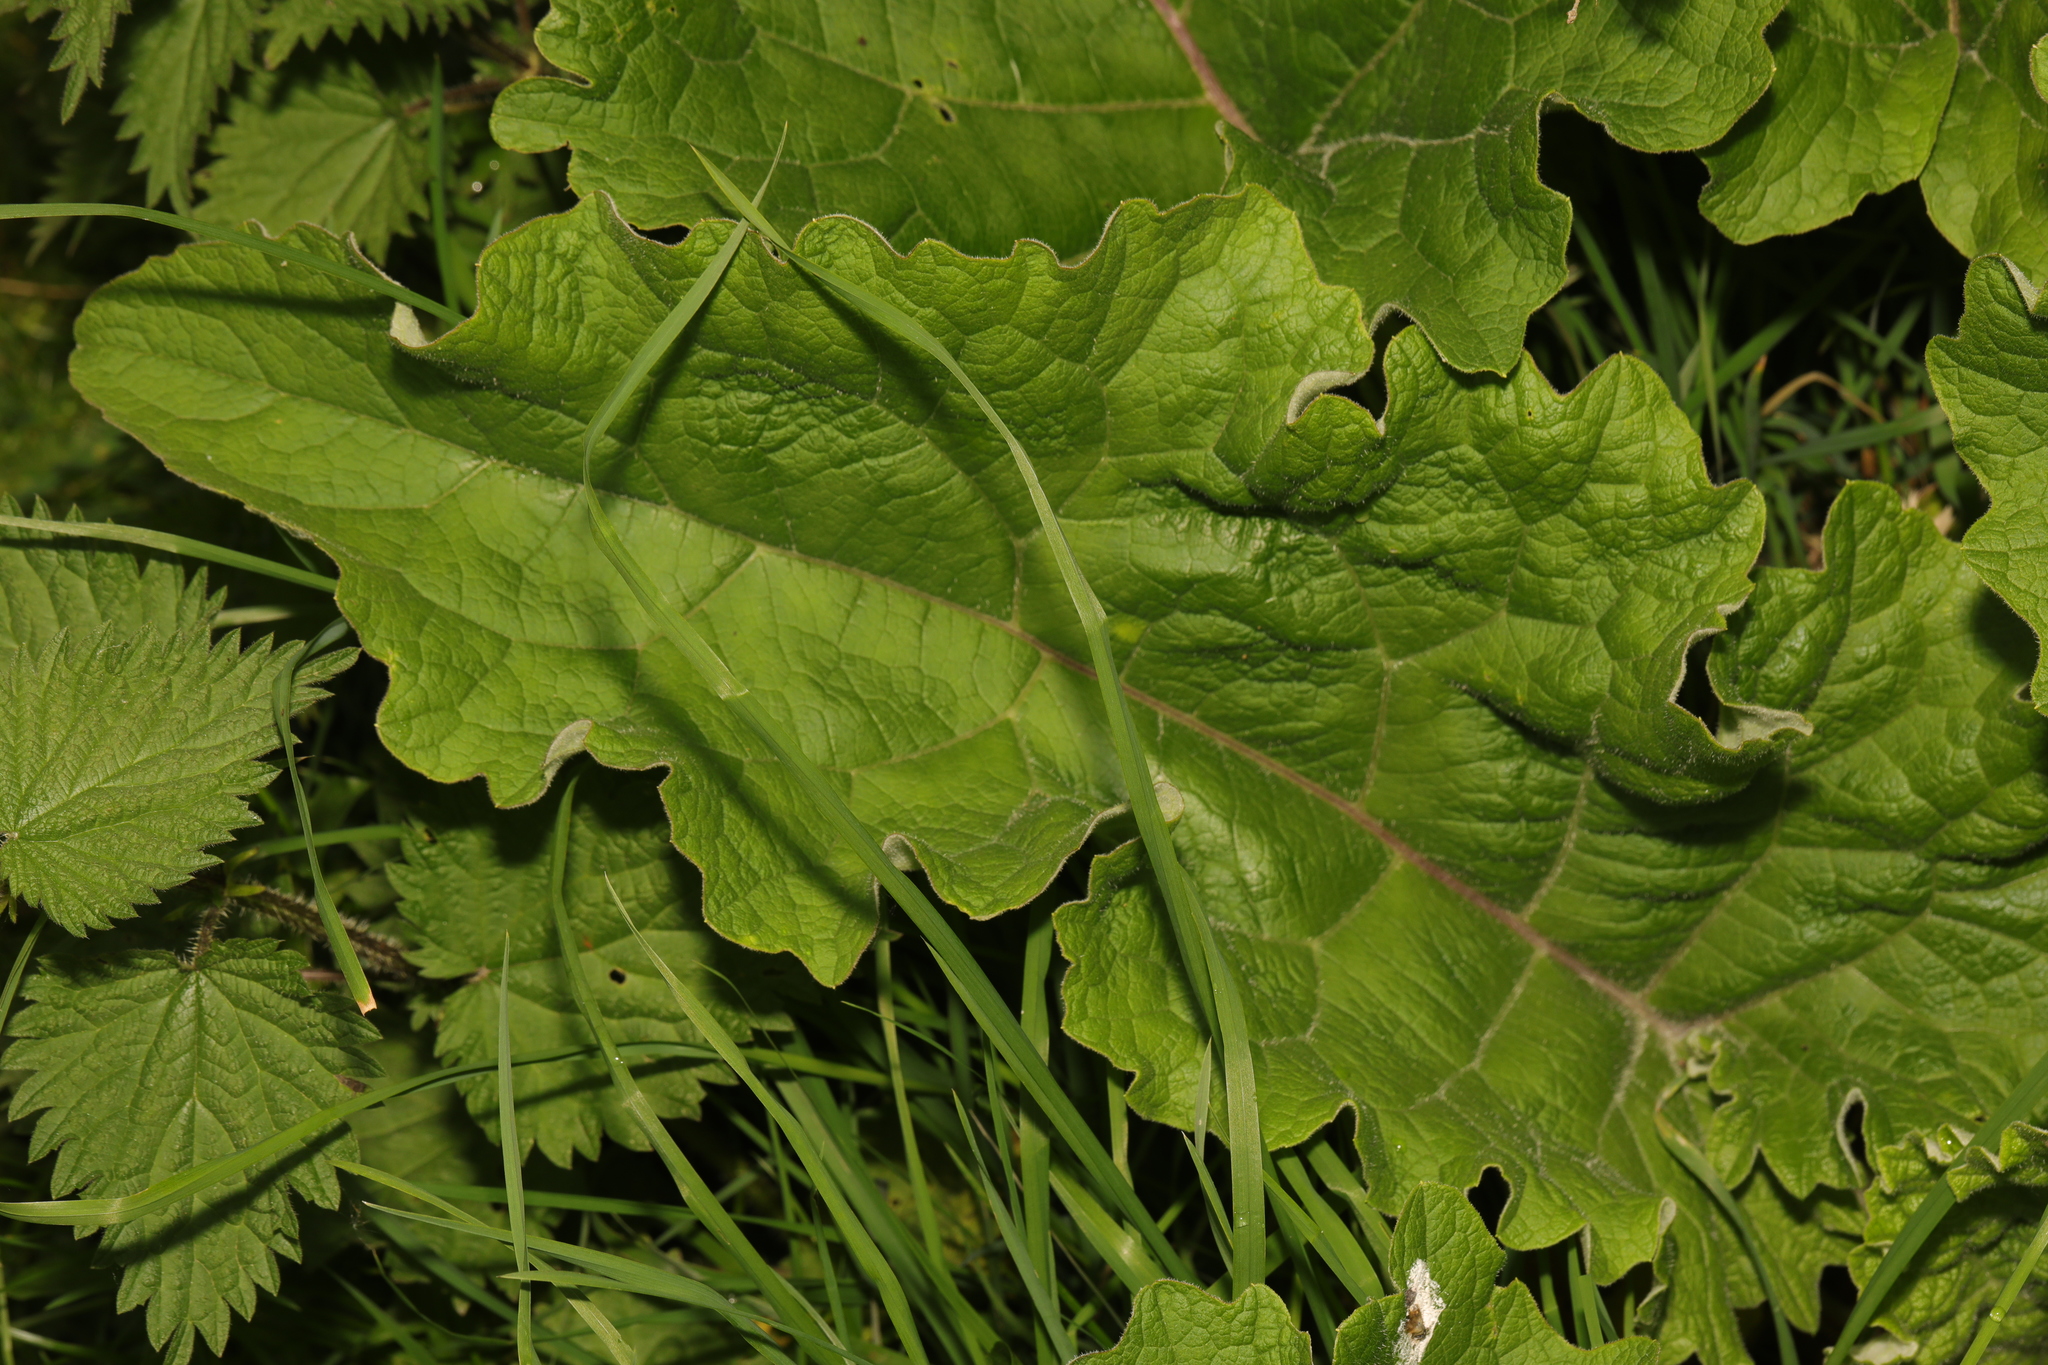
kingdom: Plantae
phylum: Tracheophyta
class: Magnoliopsida
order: Asterales
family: Asteraceae
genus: Arctium
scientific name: Arctium minus
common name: Lesser burdock
